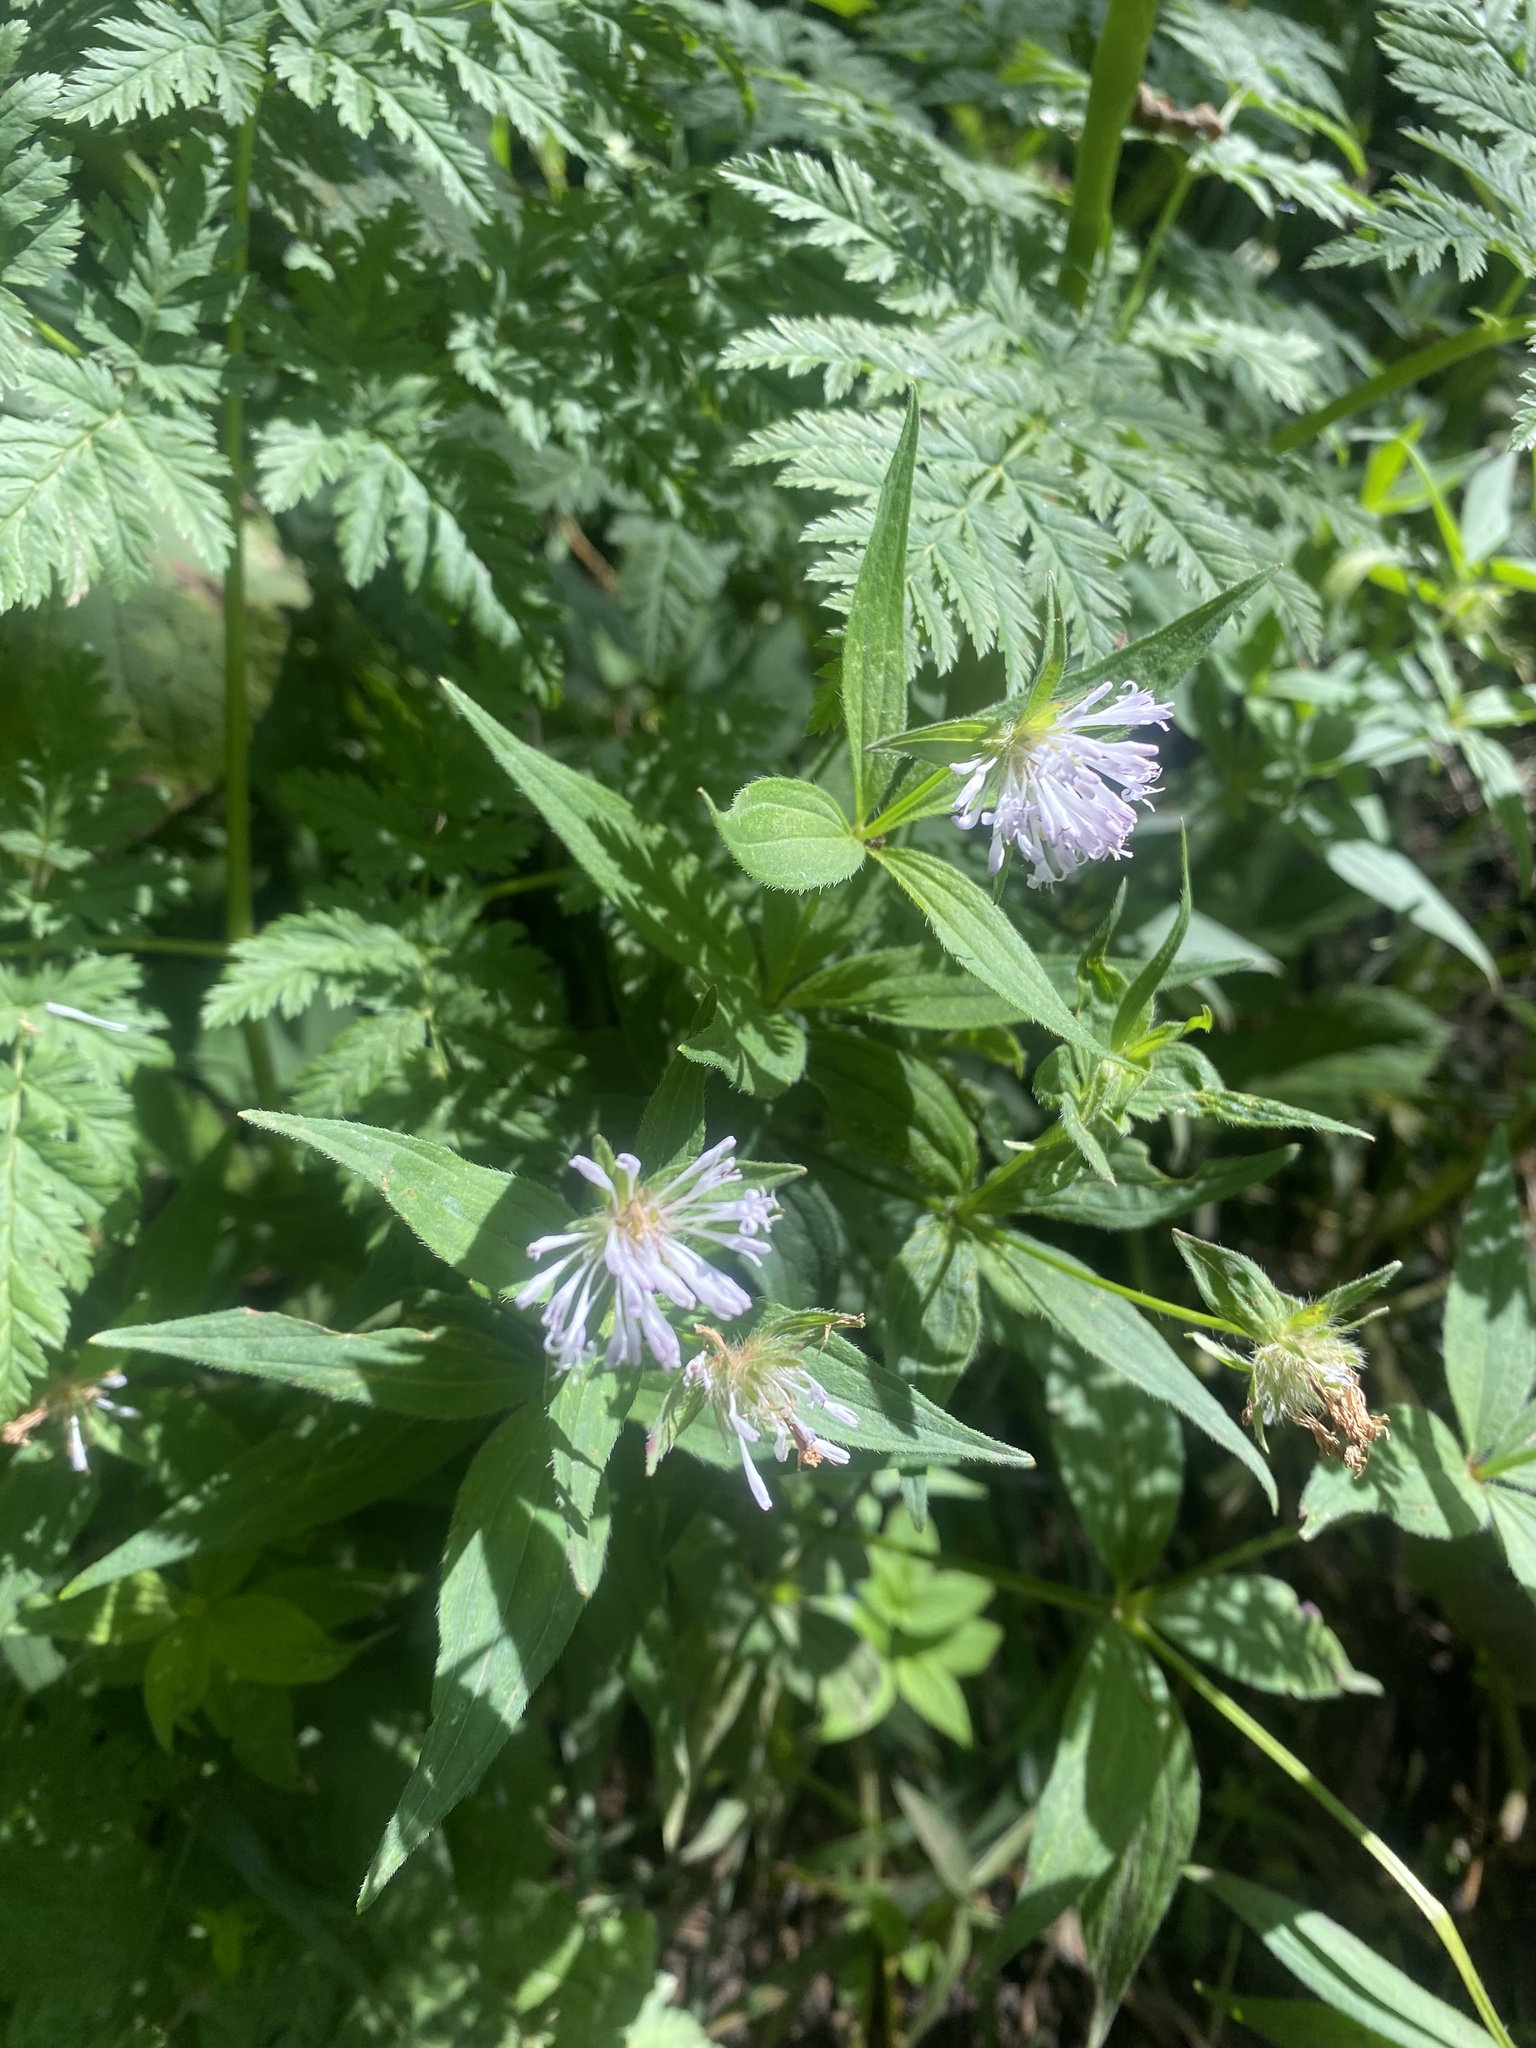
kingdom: Plantae
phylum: Tracheophyta
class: Magnoliopsida
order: Gentianales
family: Rubiaceae
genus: Asperula
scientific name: Asperula taurina
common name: Pink woodruff
